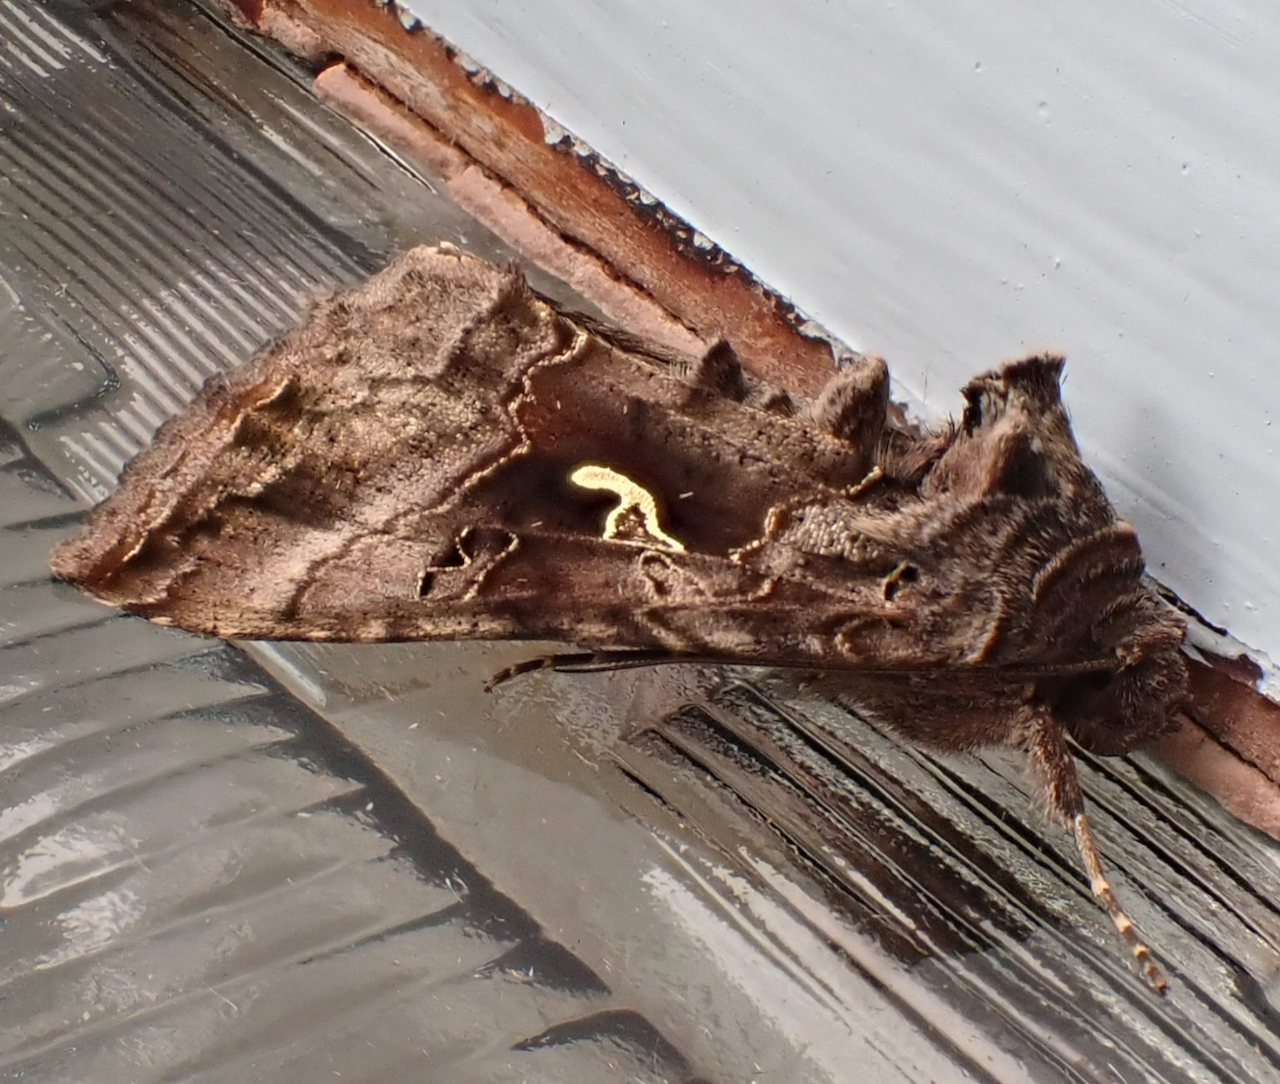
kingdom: Animalia
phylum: Arthropoda
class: Insecta
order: Lepidoptera
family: Noctuidae
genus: Autographa
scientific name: Autographa gamma
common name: Silver y
